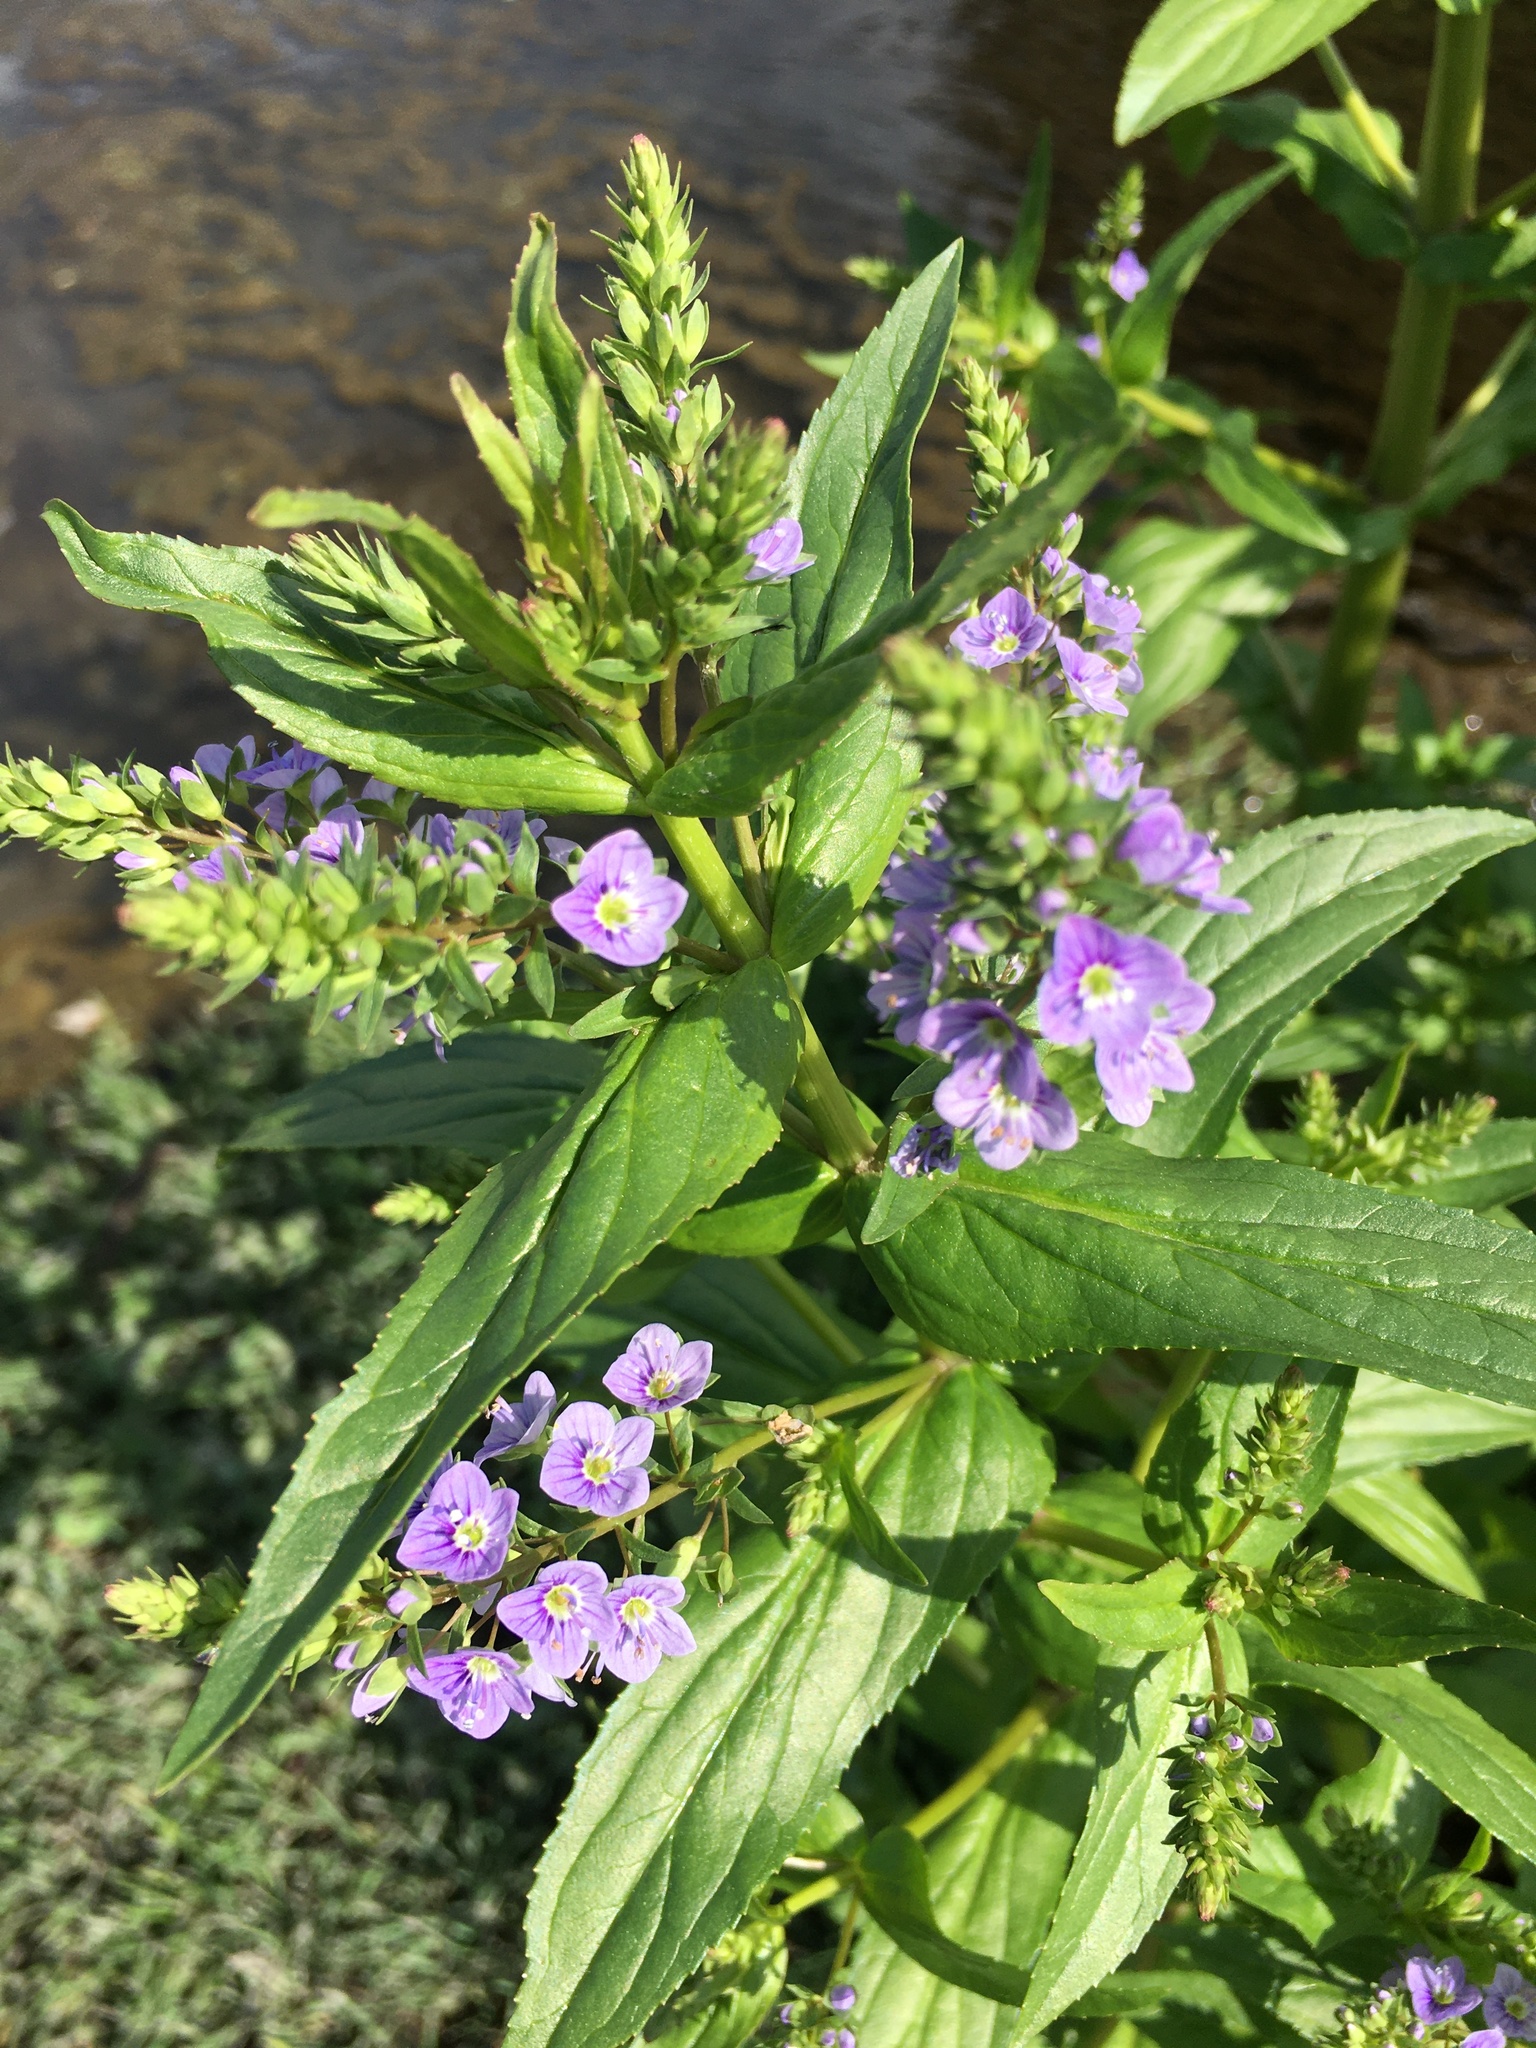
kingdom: Plantae
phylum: Tracheophyta
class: Magnoliopsida
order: Lamiales
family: Plantaginaceae
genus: Veronica
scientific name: Veronica anagallis-aquatica
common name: Water speedwell
